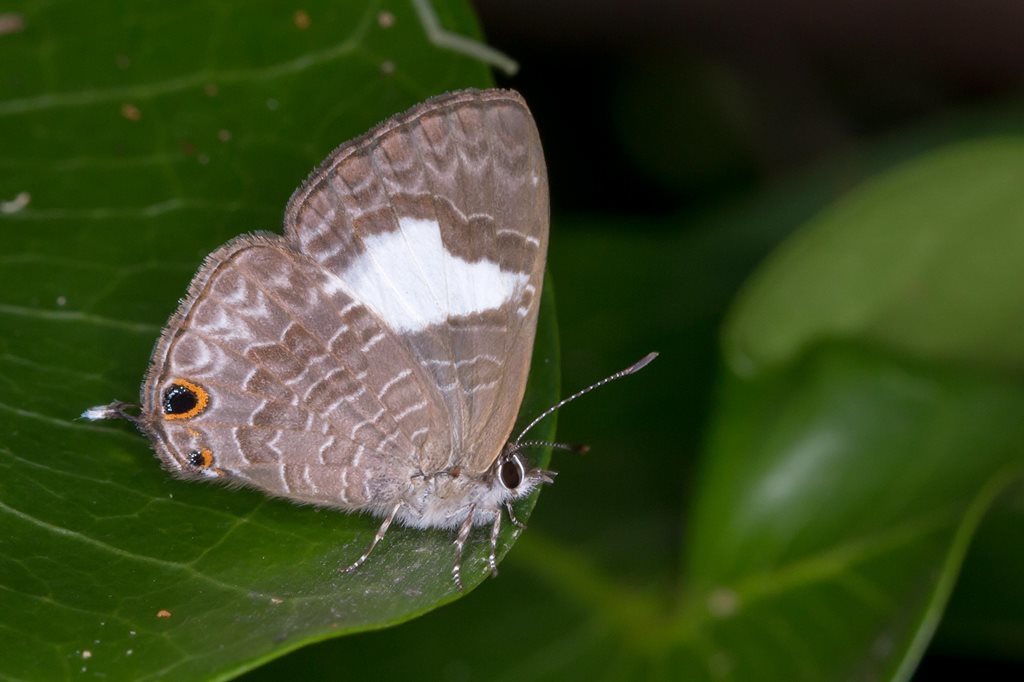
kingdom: Animalia
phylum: Arthropoda
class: Insecta
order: Lepidoptera
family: Lycaenidae
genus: Erysichton
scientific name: Erysichton lineata
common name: Hairy line blue
